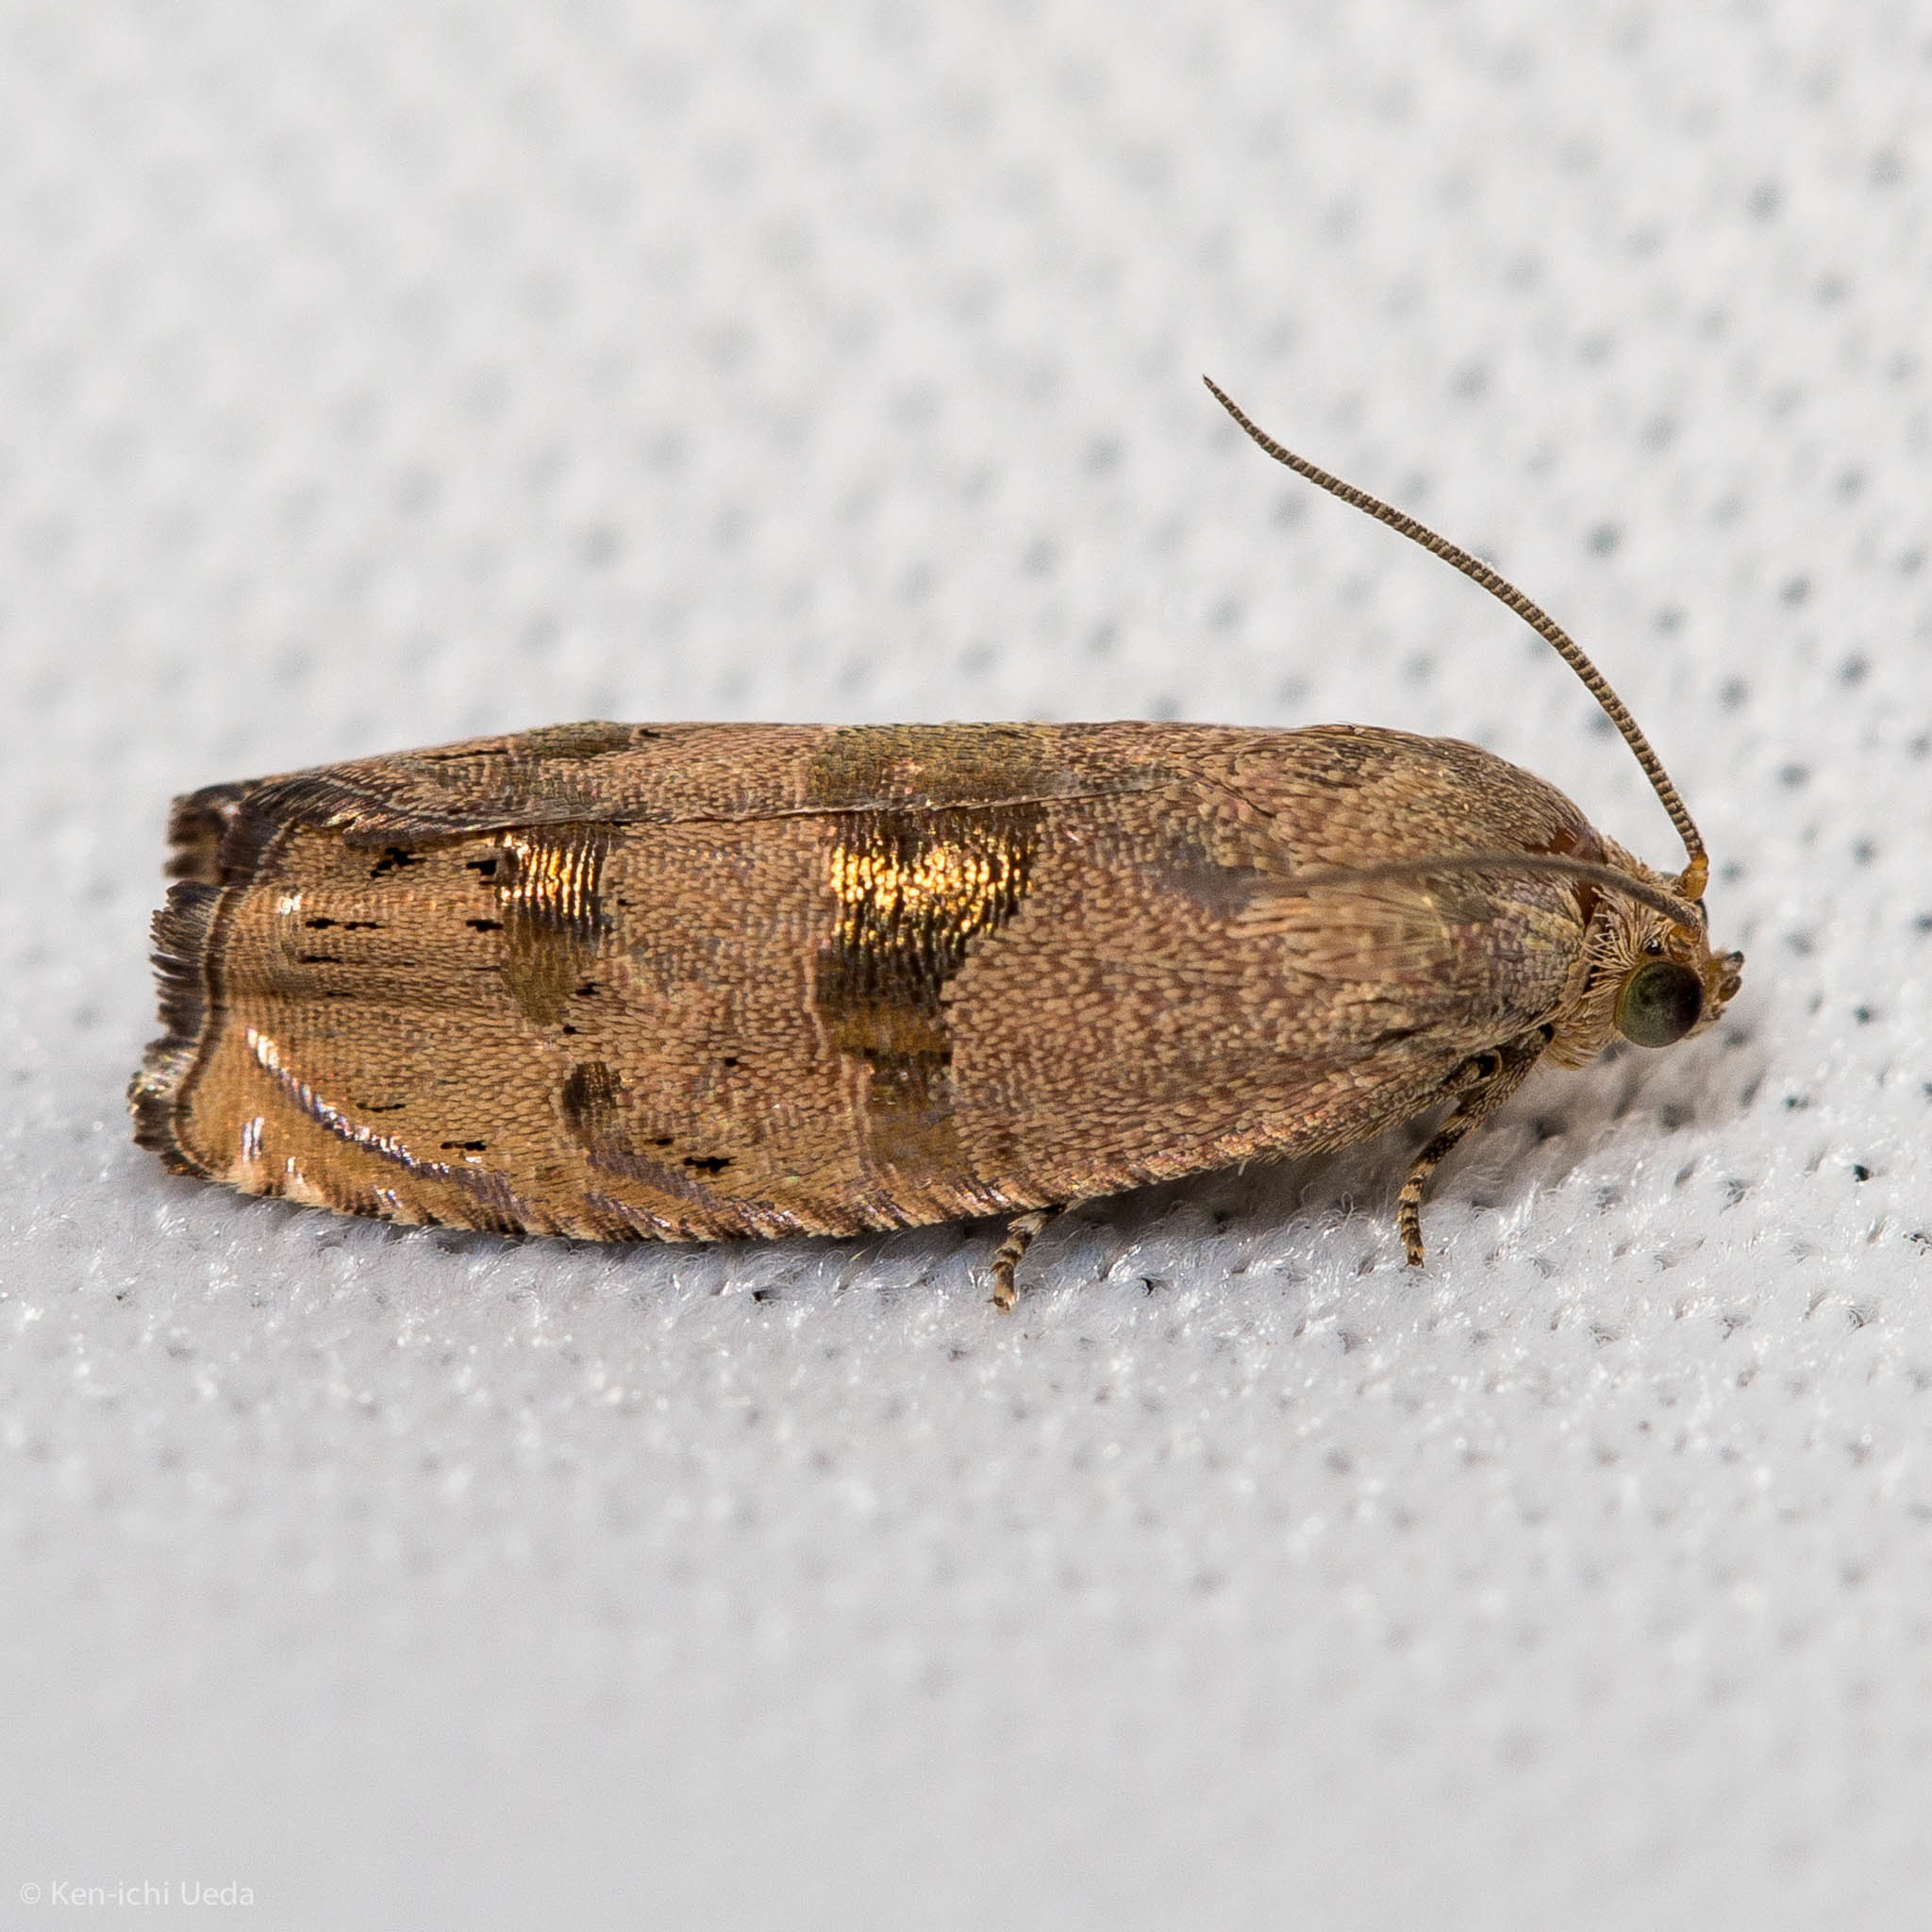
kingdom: Animalia
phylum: Arthropoda
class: Insecta
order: Lepidoptera
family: Tortricidae
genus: Cydia
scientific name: Cydia latiferreana
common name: Filbertworm moth
